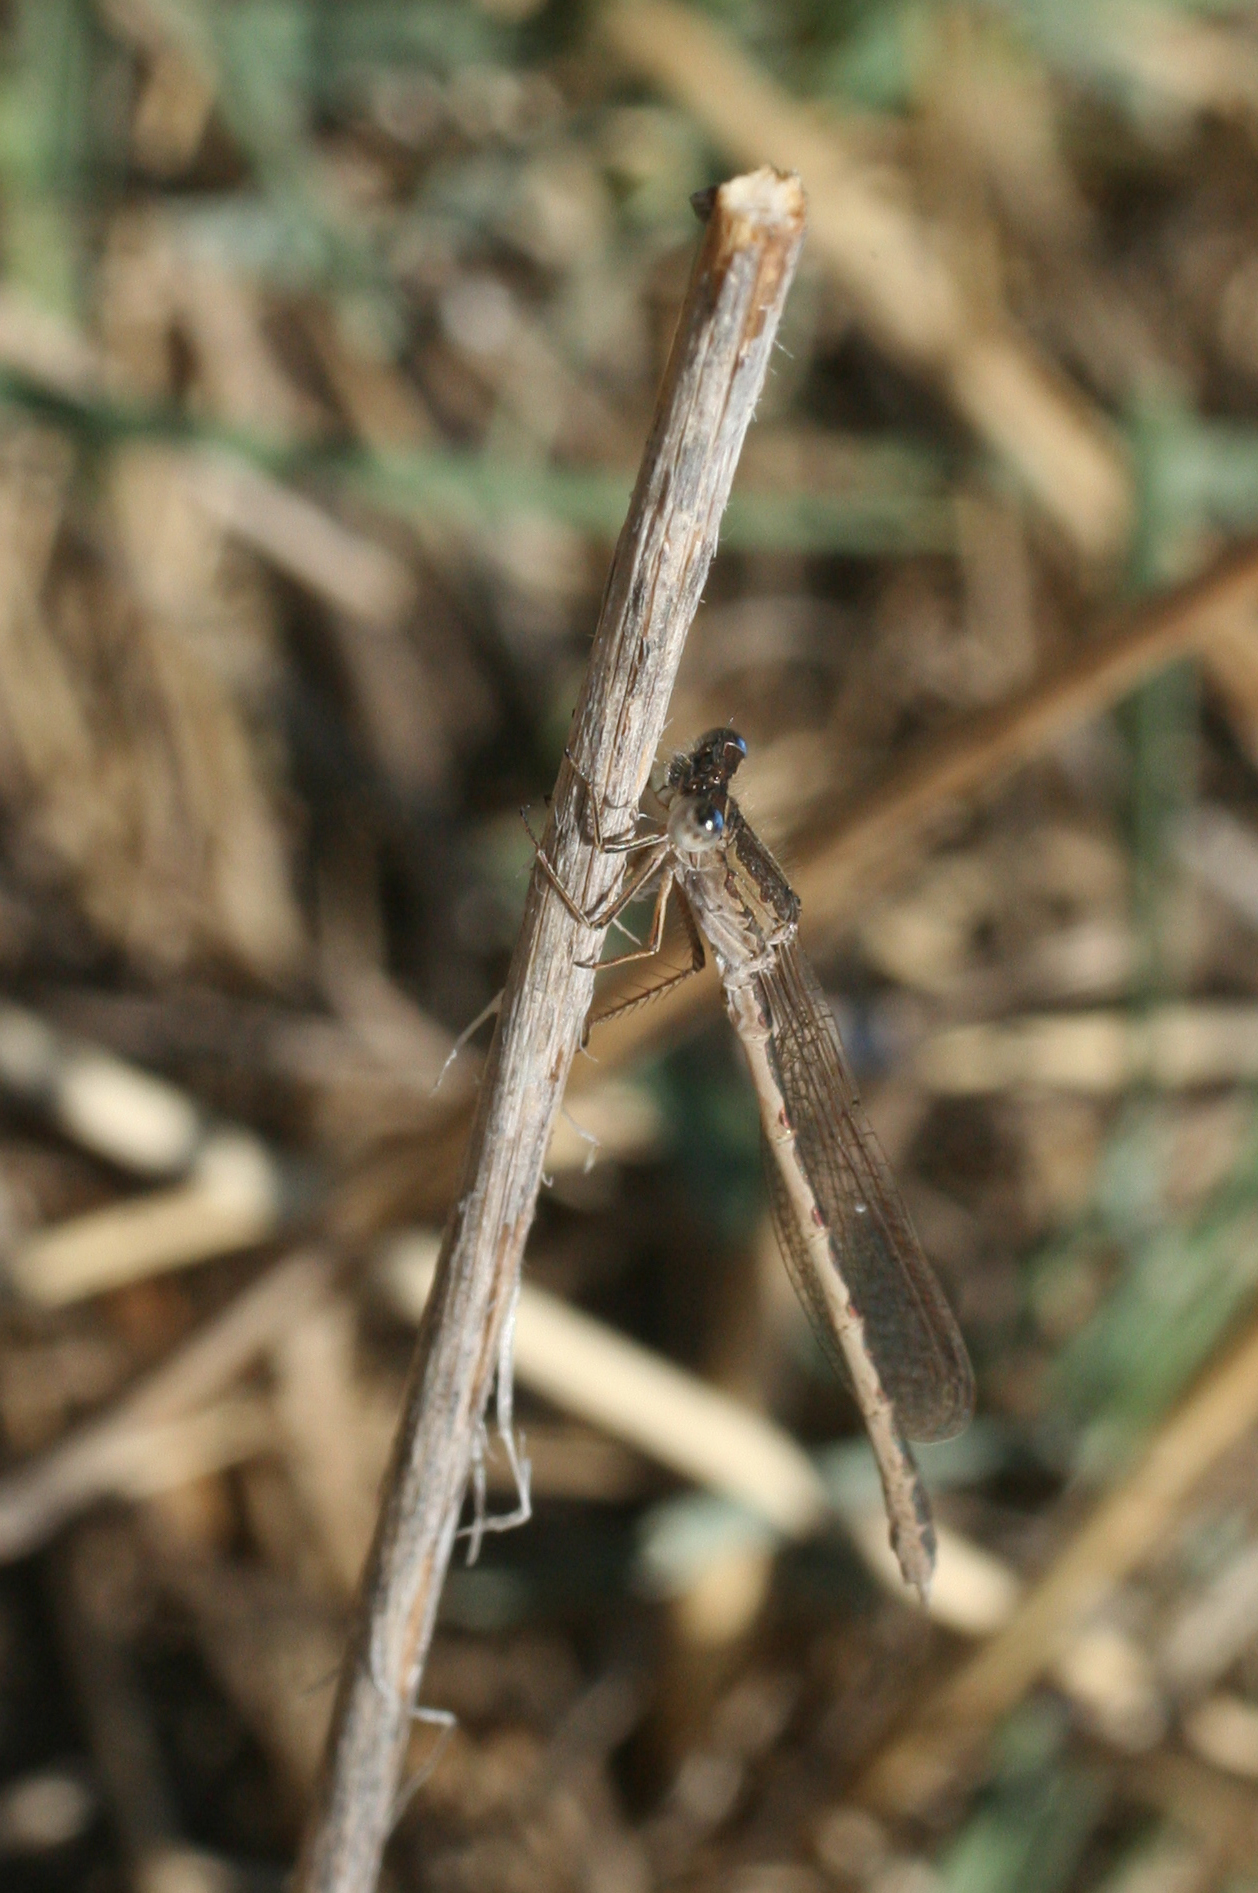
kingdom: Animalia
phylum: Arthropoda
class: Insecta
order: Odonata
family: Lestidae
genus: Sympecma
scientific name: Sympecma paedisca
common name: Siberian winter damsel
